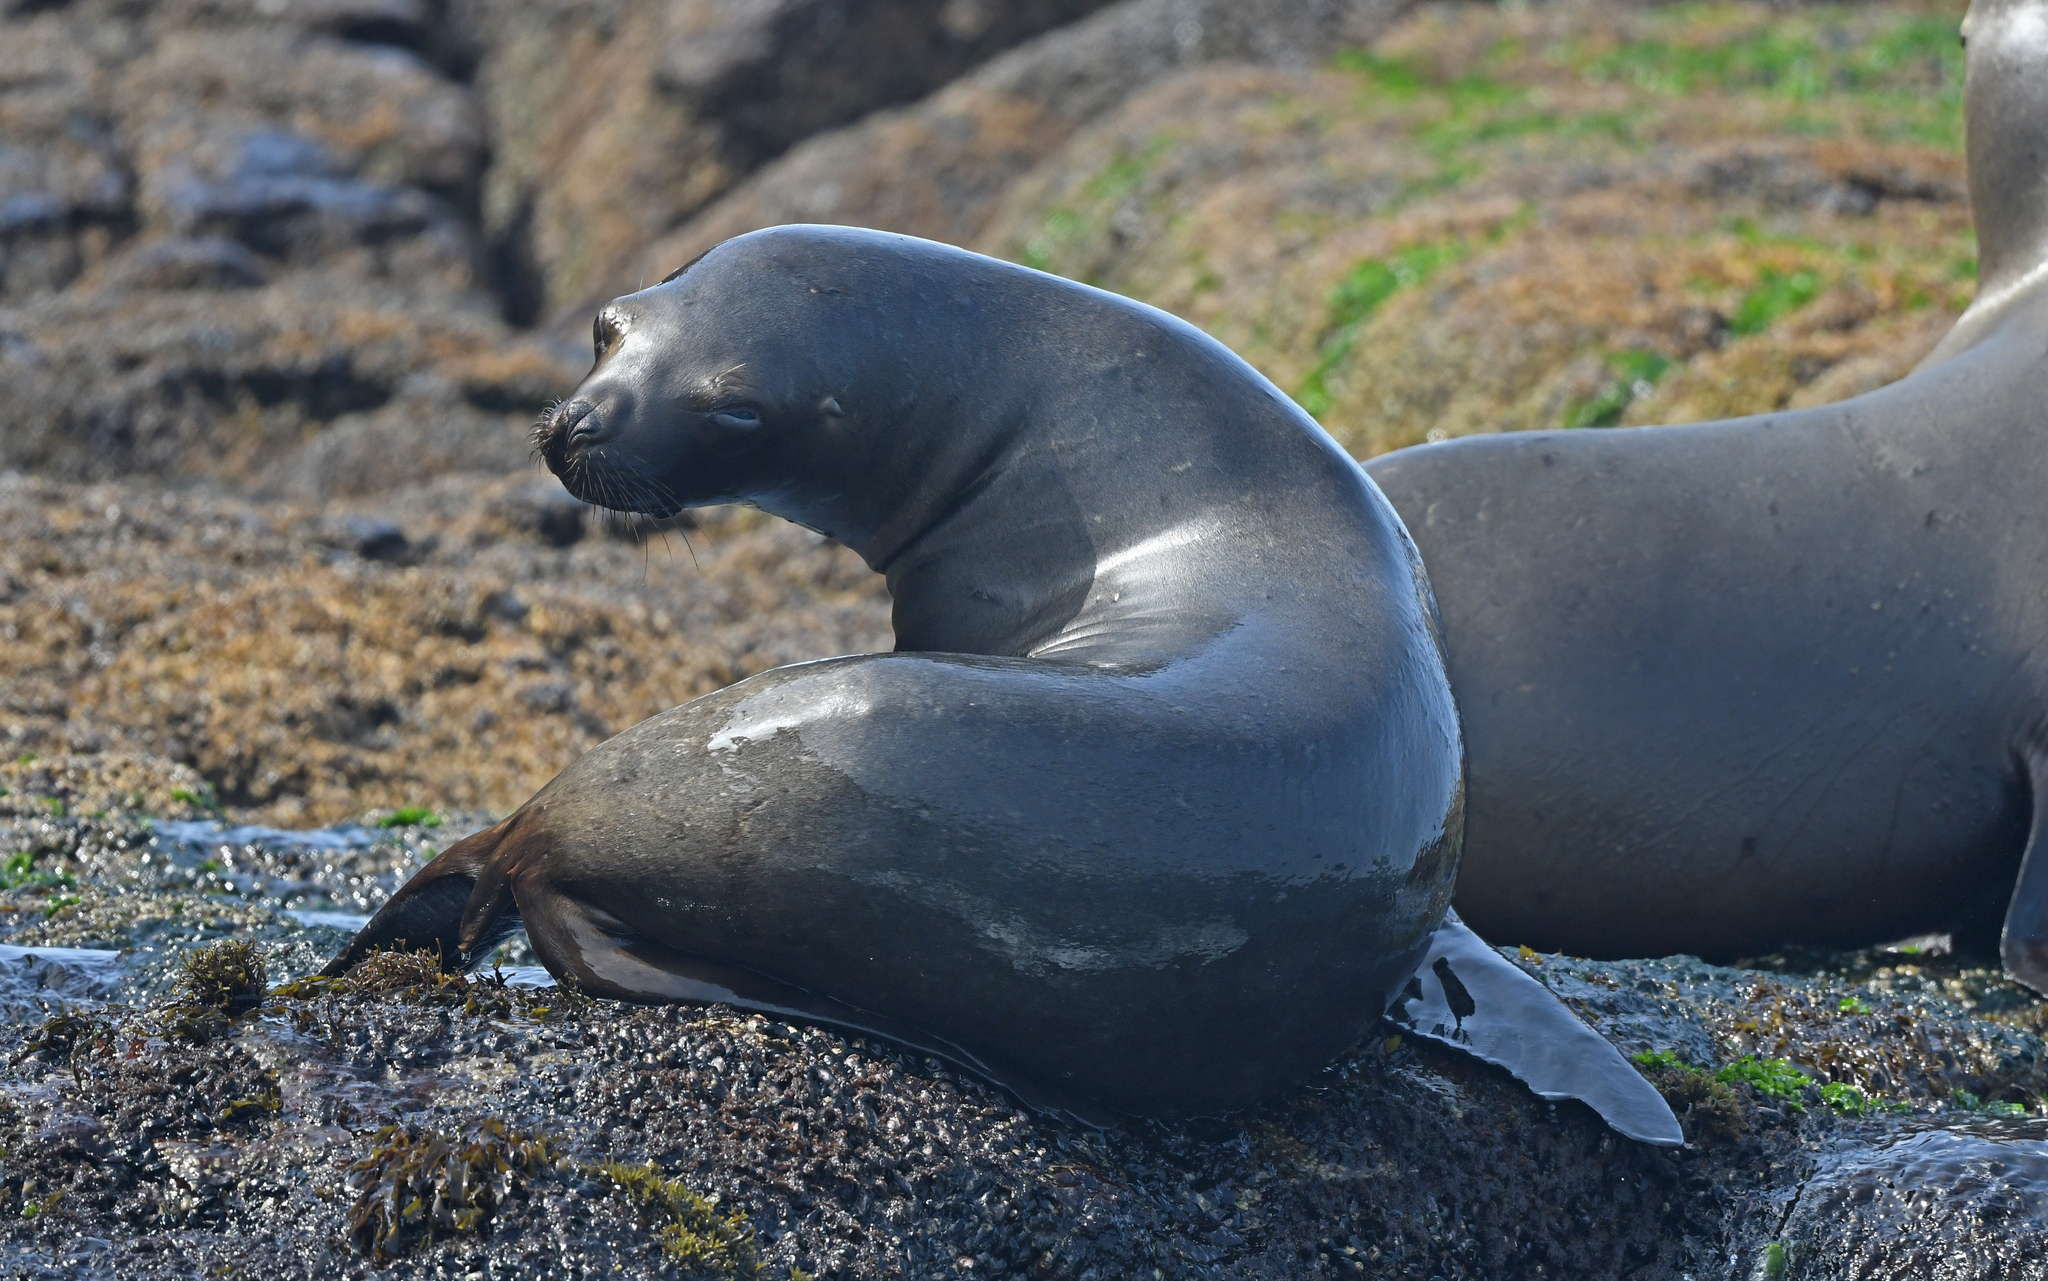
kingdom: Animalia
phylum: Chordata
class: Mammalia
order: Carnivora
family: Otariidae
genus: Otaria
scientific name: Otaria byronia
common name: South american sea lion
